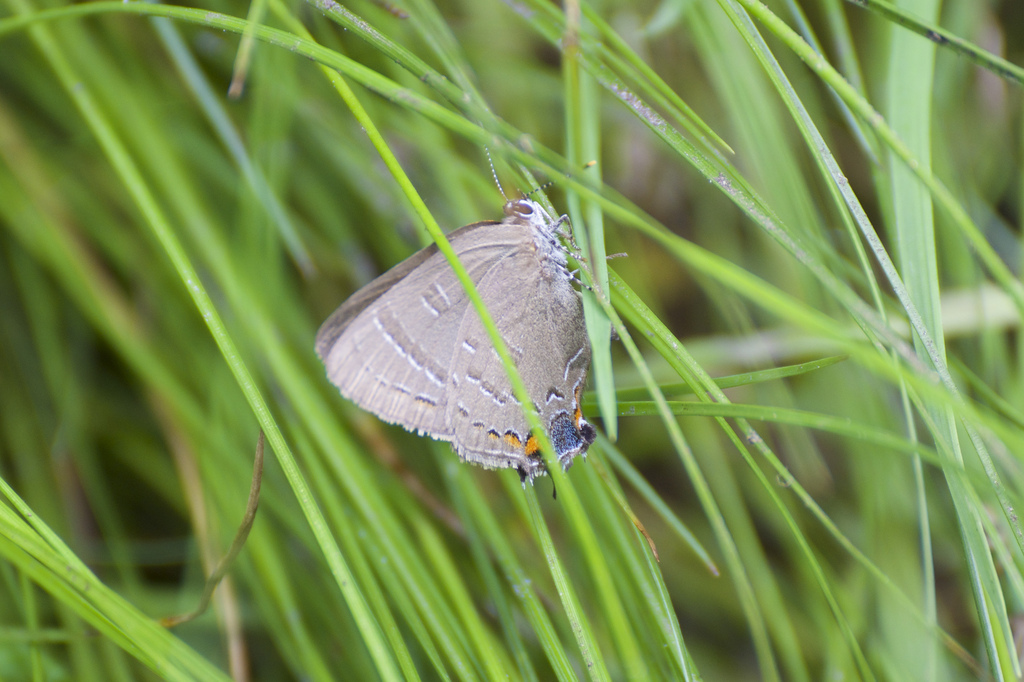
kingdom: Animalia
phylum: Arthropoda
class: Insecta
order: Lepidoptera
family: Lycaenidae
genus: Satyrium
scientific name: Satyrium calanus
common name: Banded hairstreak
